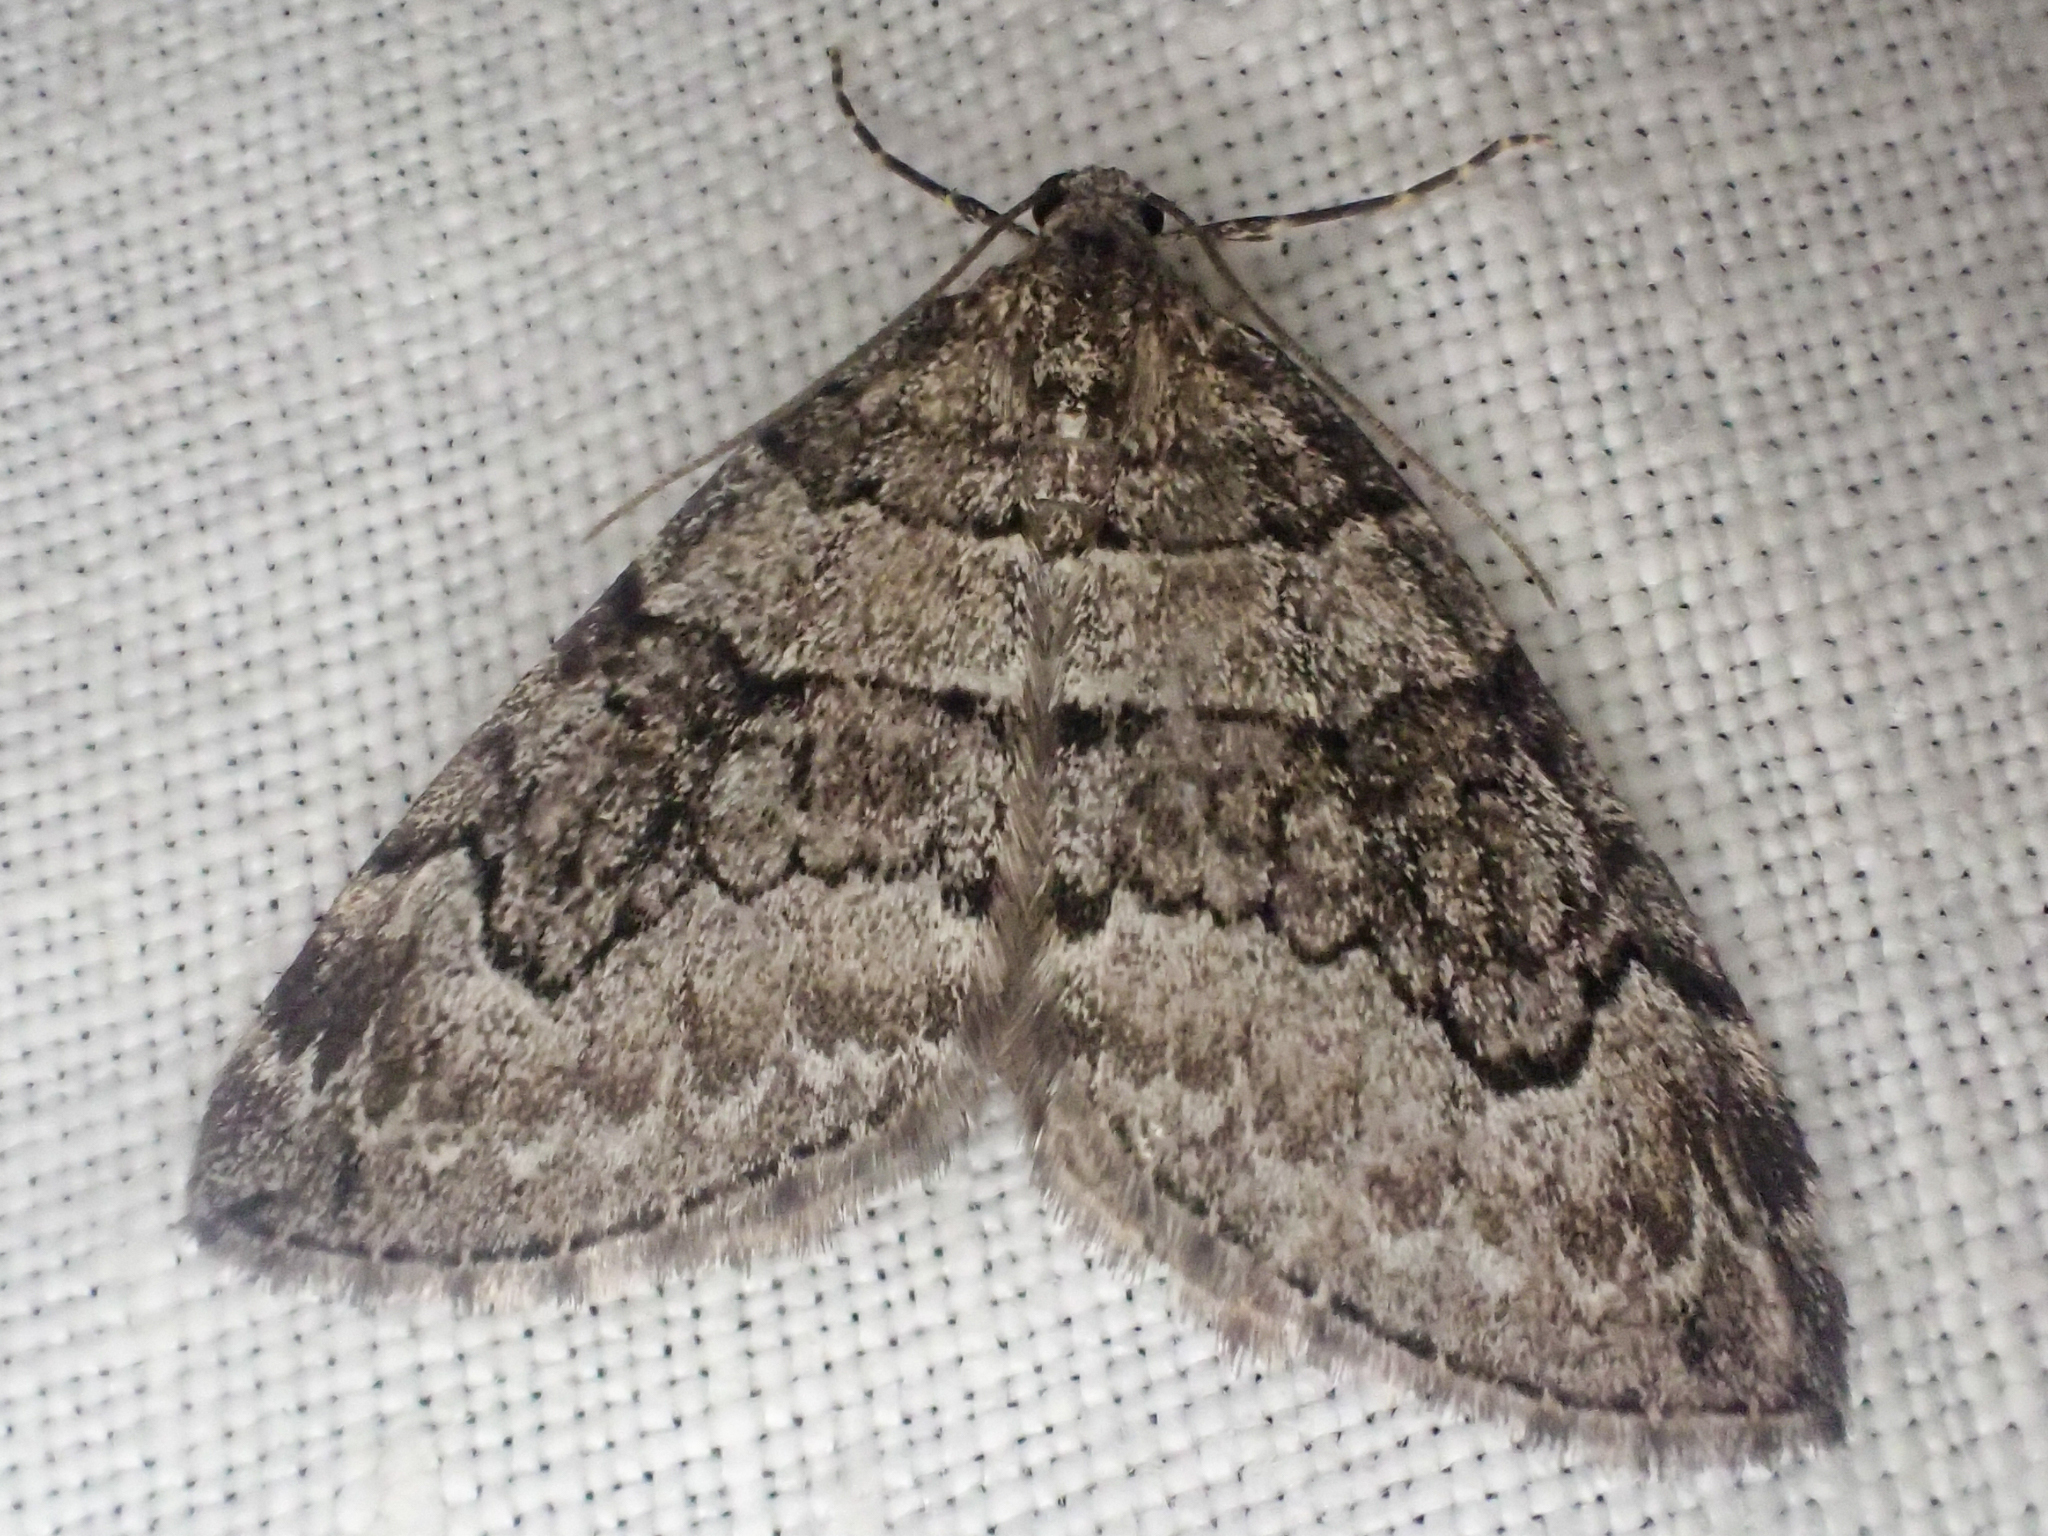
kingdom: Animalia
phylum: Arthropoda
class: Insecta
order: Lepidoptera
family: Geometridae
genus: Thera
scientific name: Thera otisi
